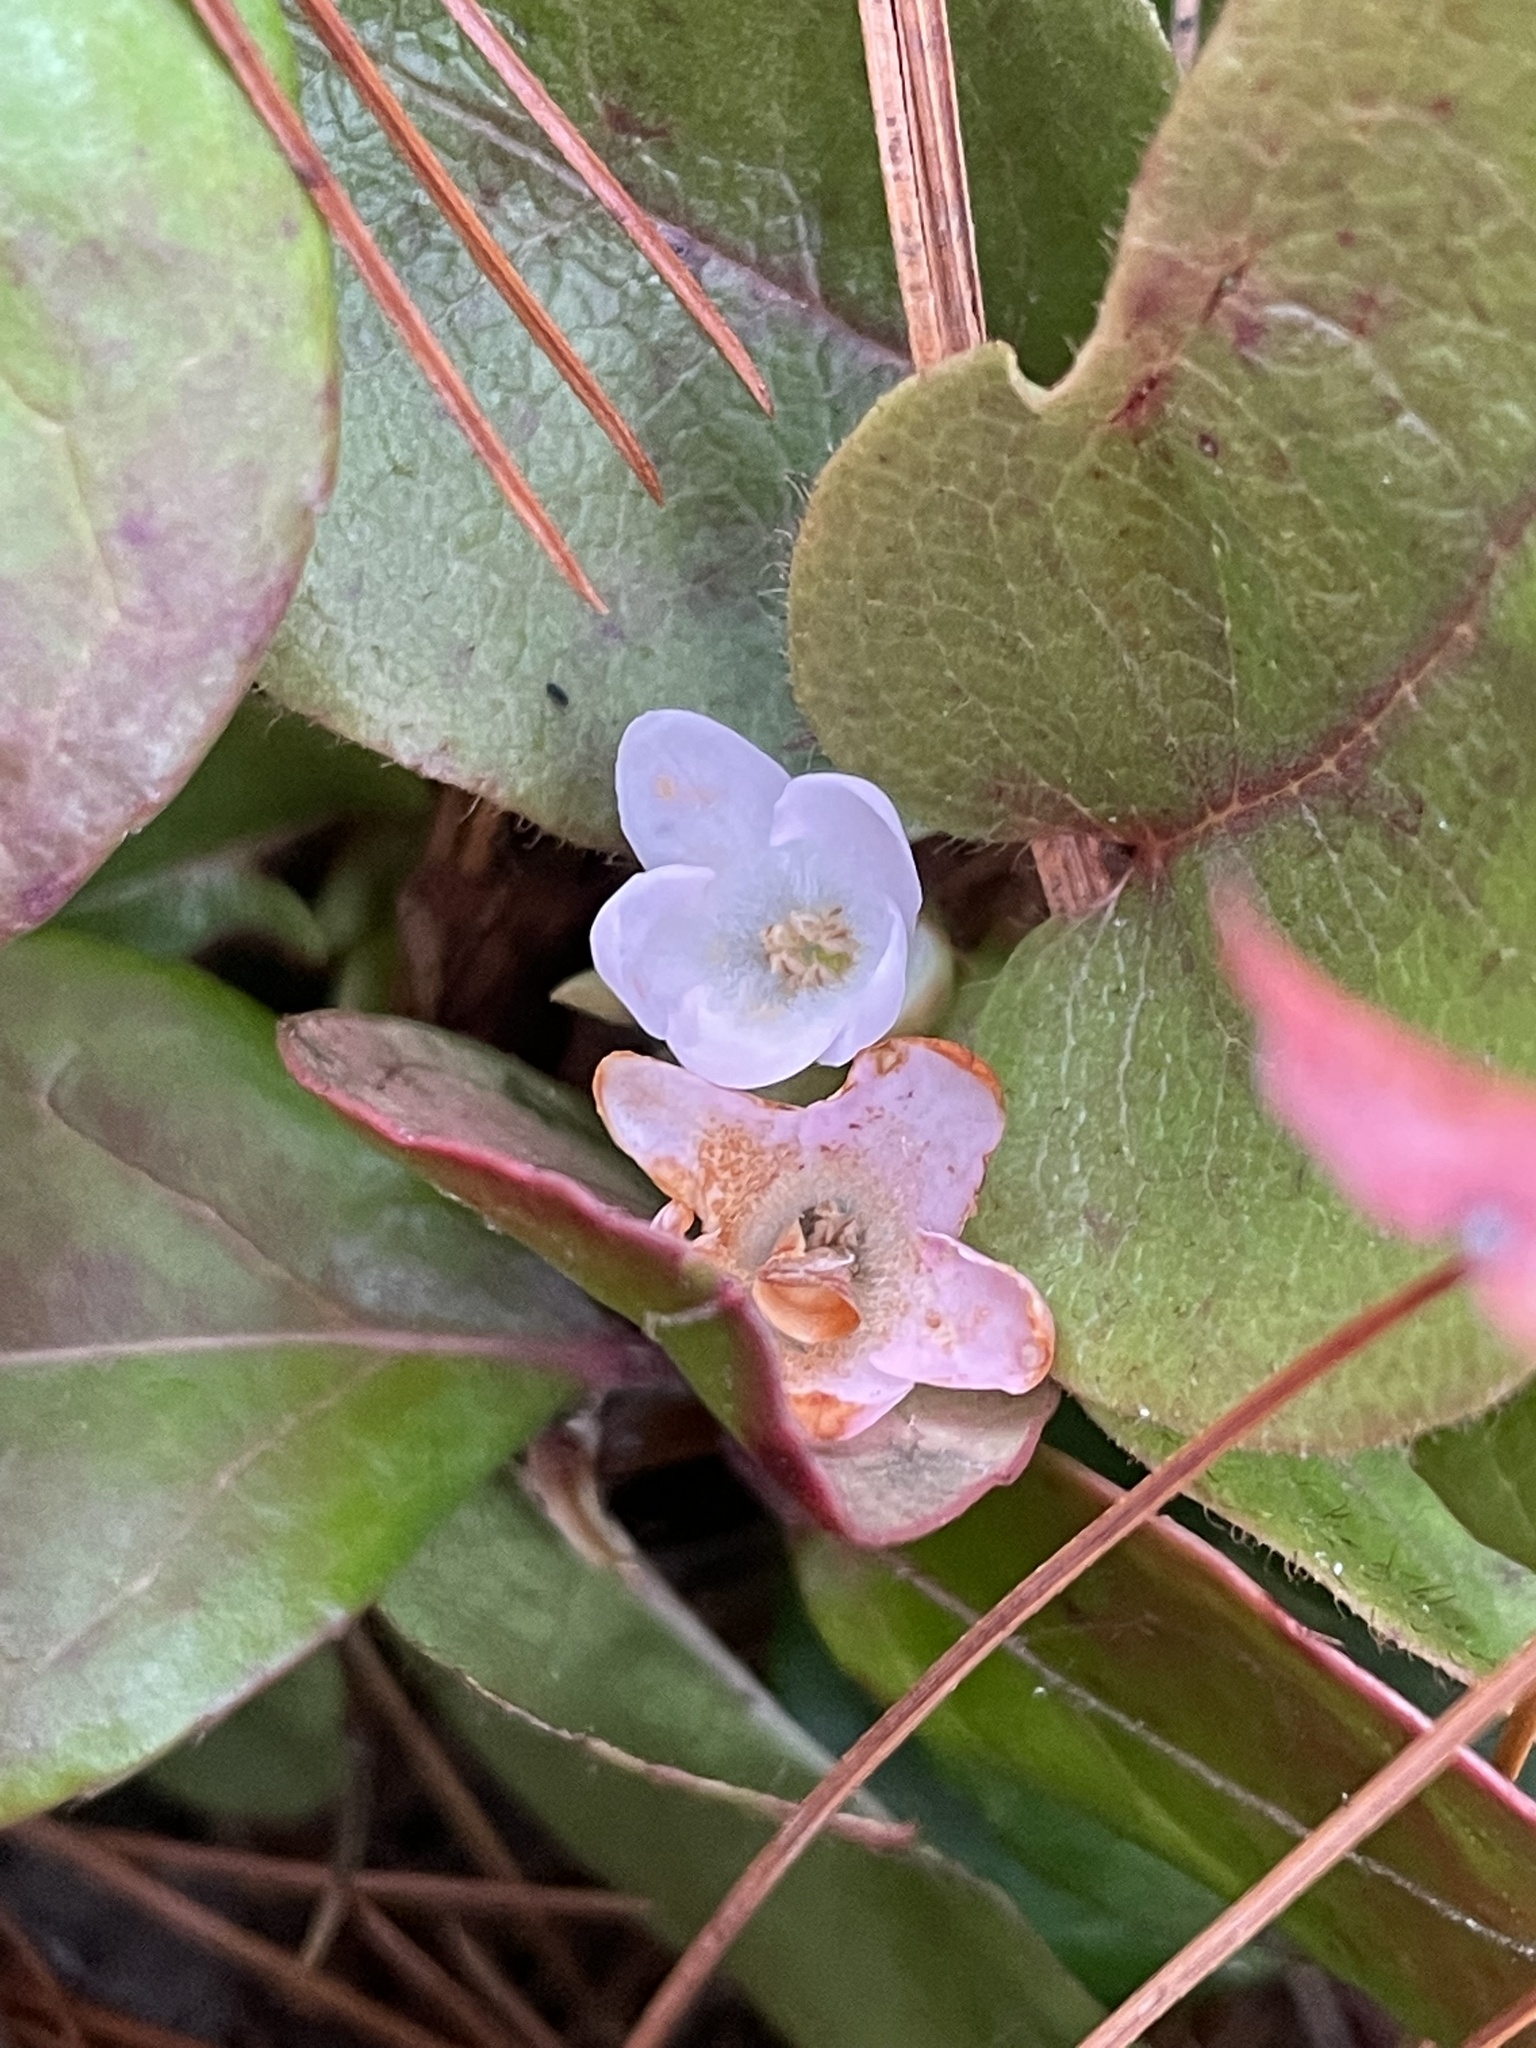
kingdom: Plantae
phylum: Tracheophyta
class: Magnoliopsida
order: Ericales
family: Ericaceae
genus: Epigaea
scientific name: Epigaea repens
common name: Gravelroot
